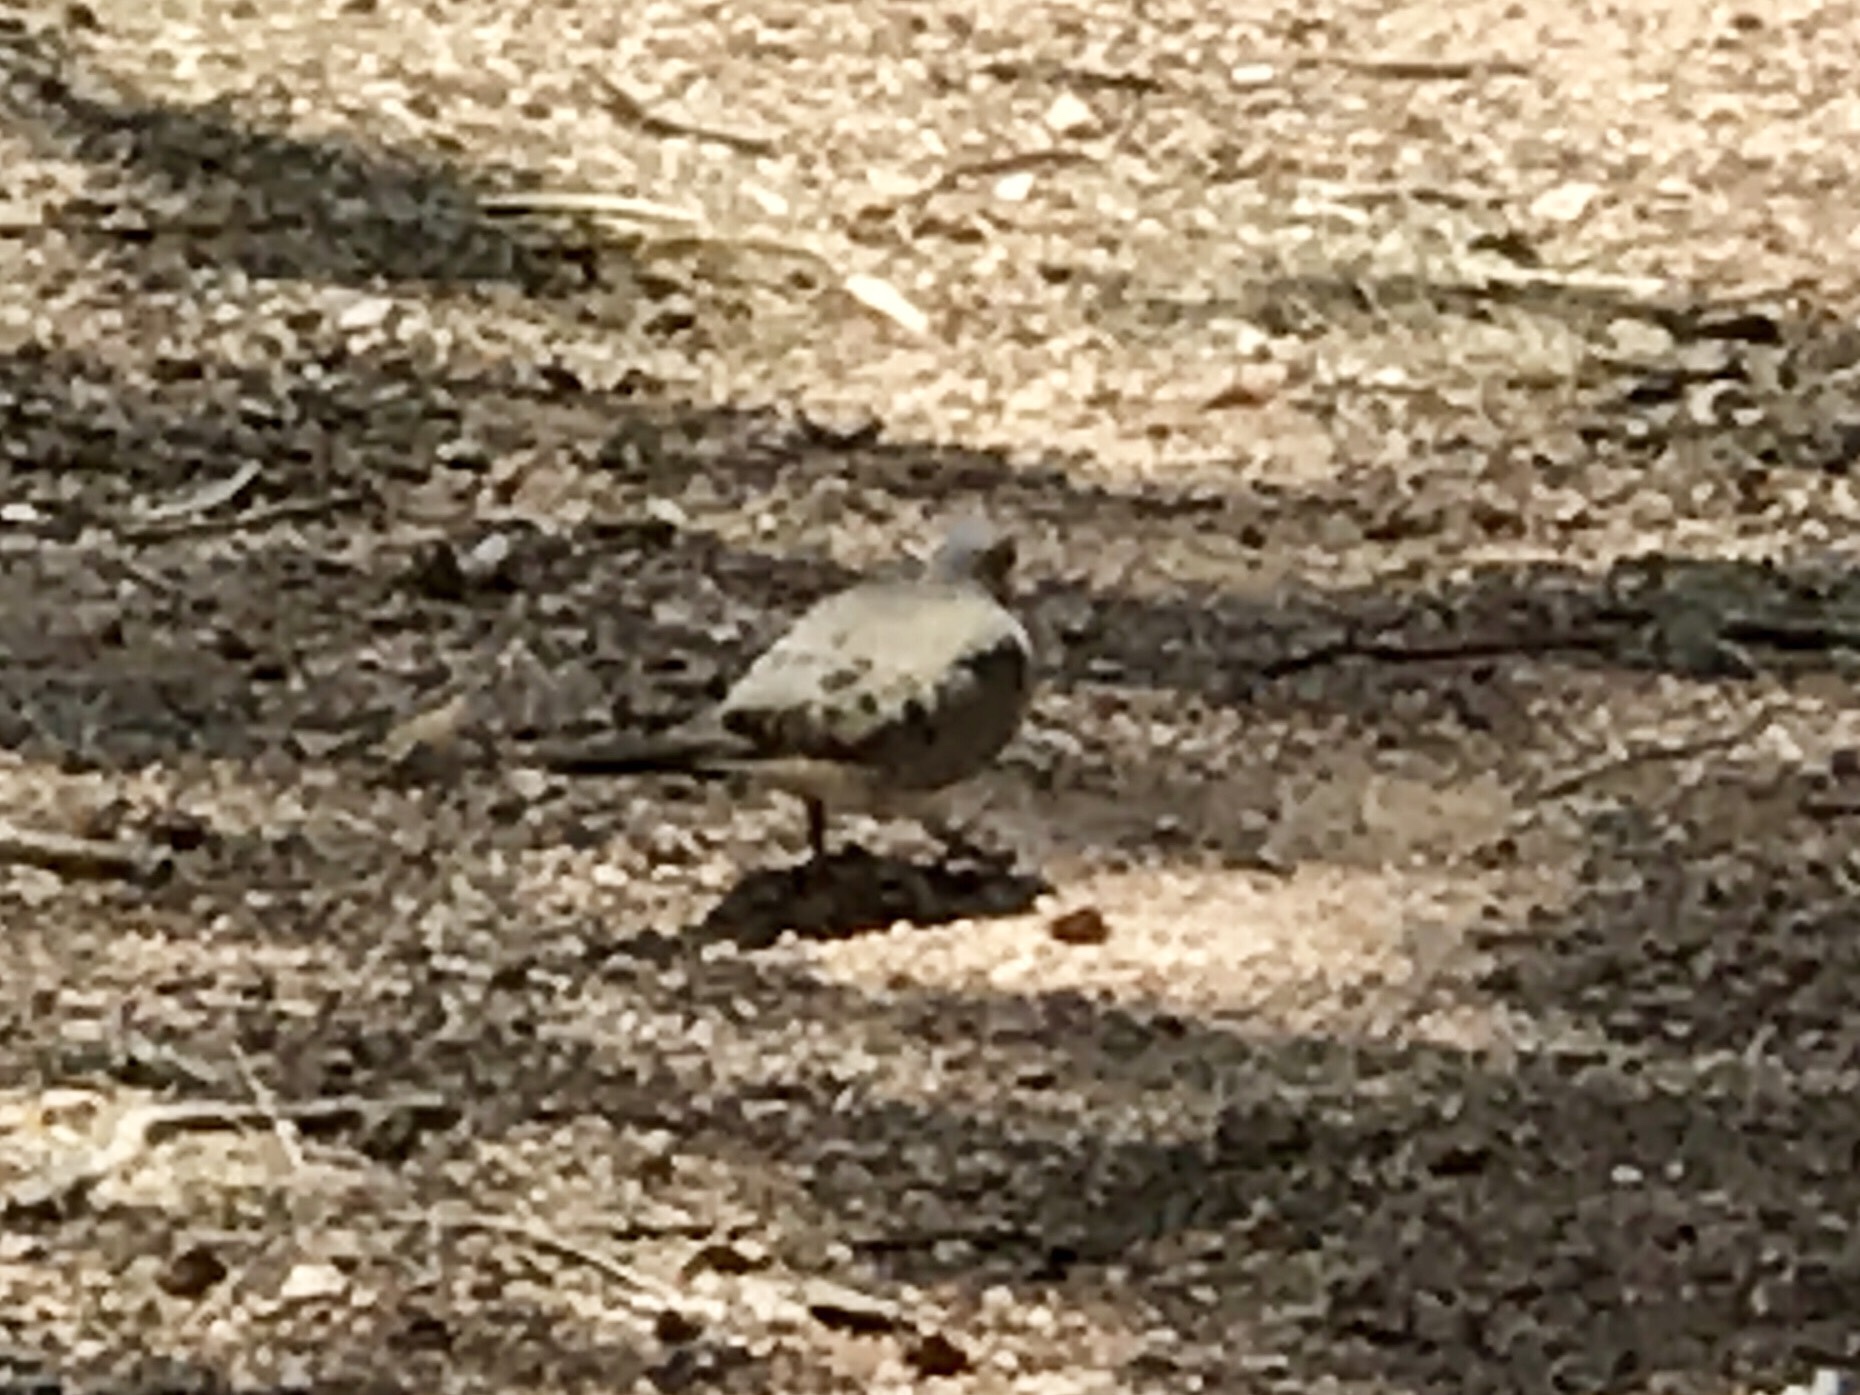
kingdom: Animalia
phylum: Chordata
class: Aves
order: Columbiformes
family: Columbidae
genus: Zenaida
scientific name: Zenaida macroura
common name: Mourning dove
